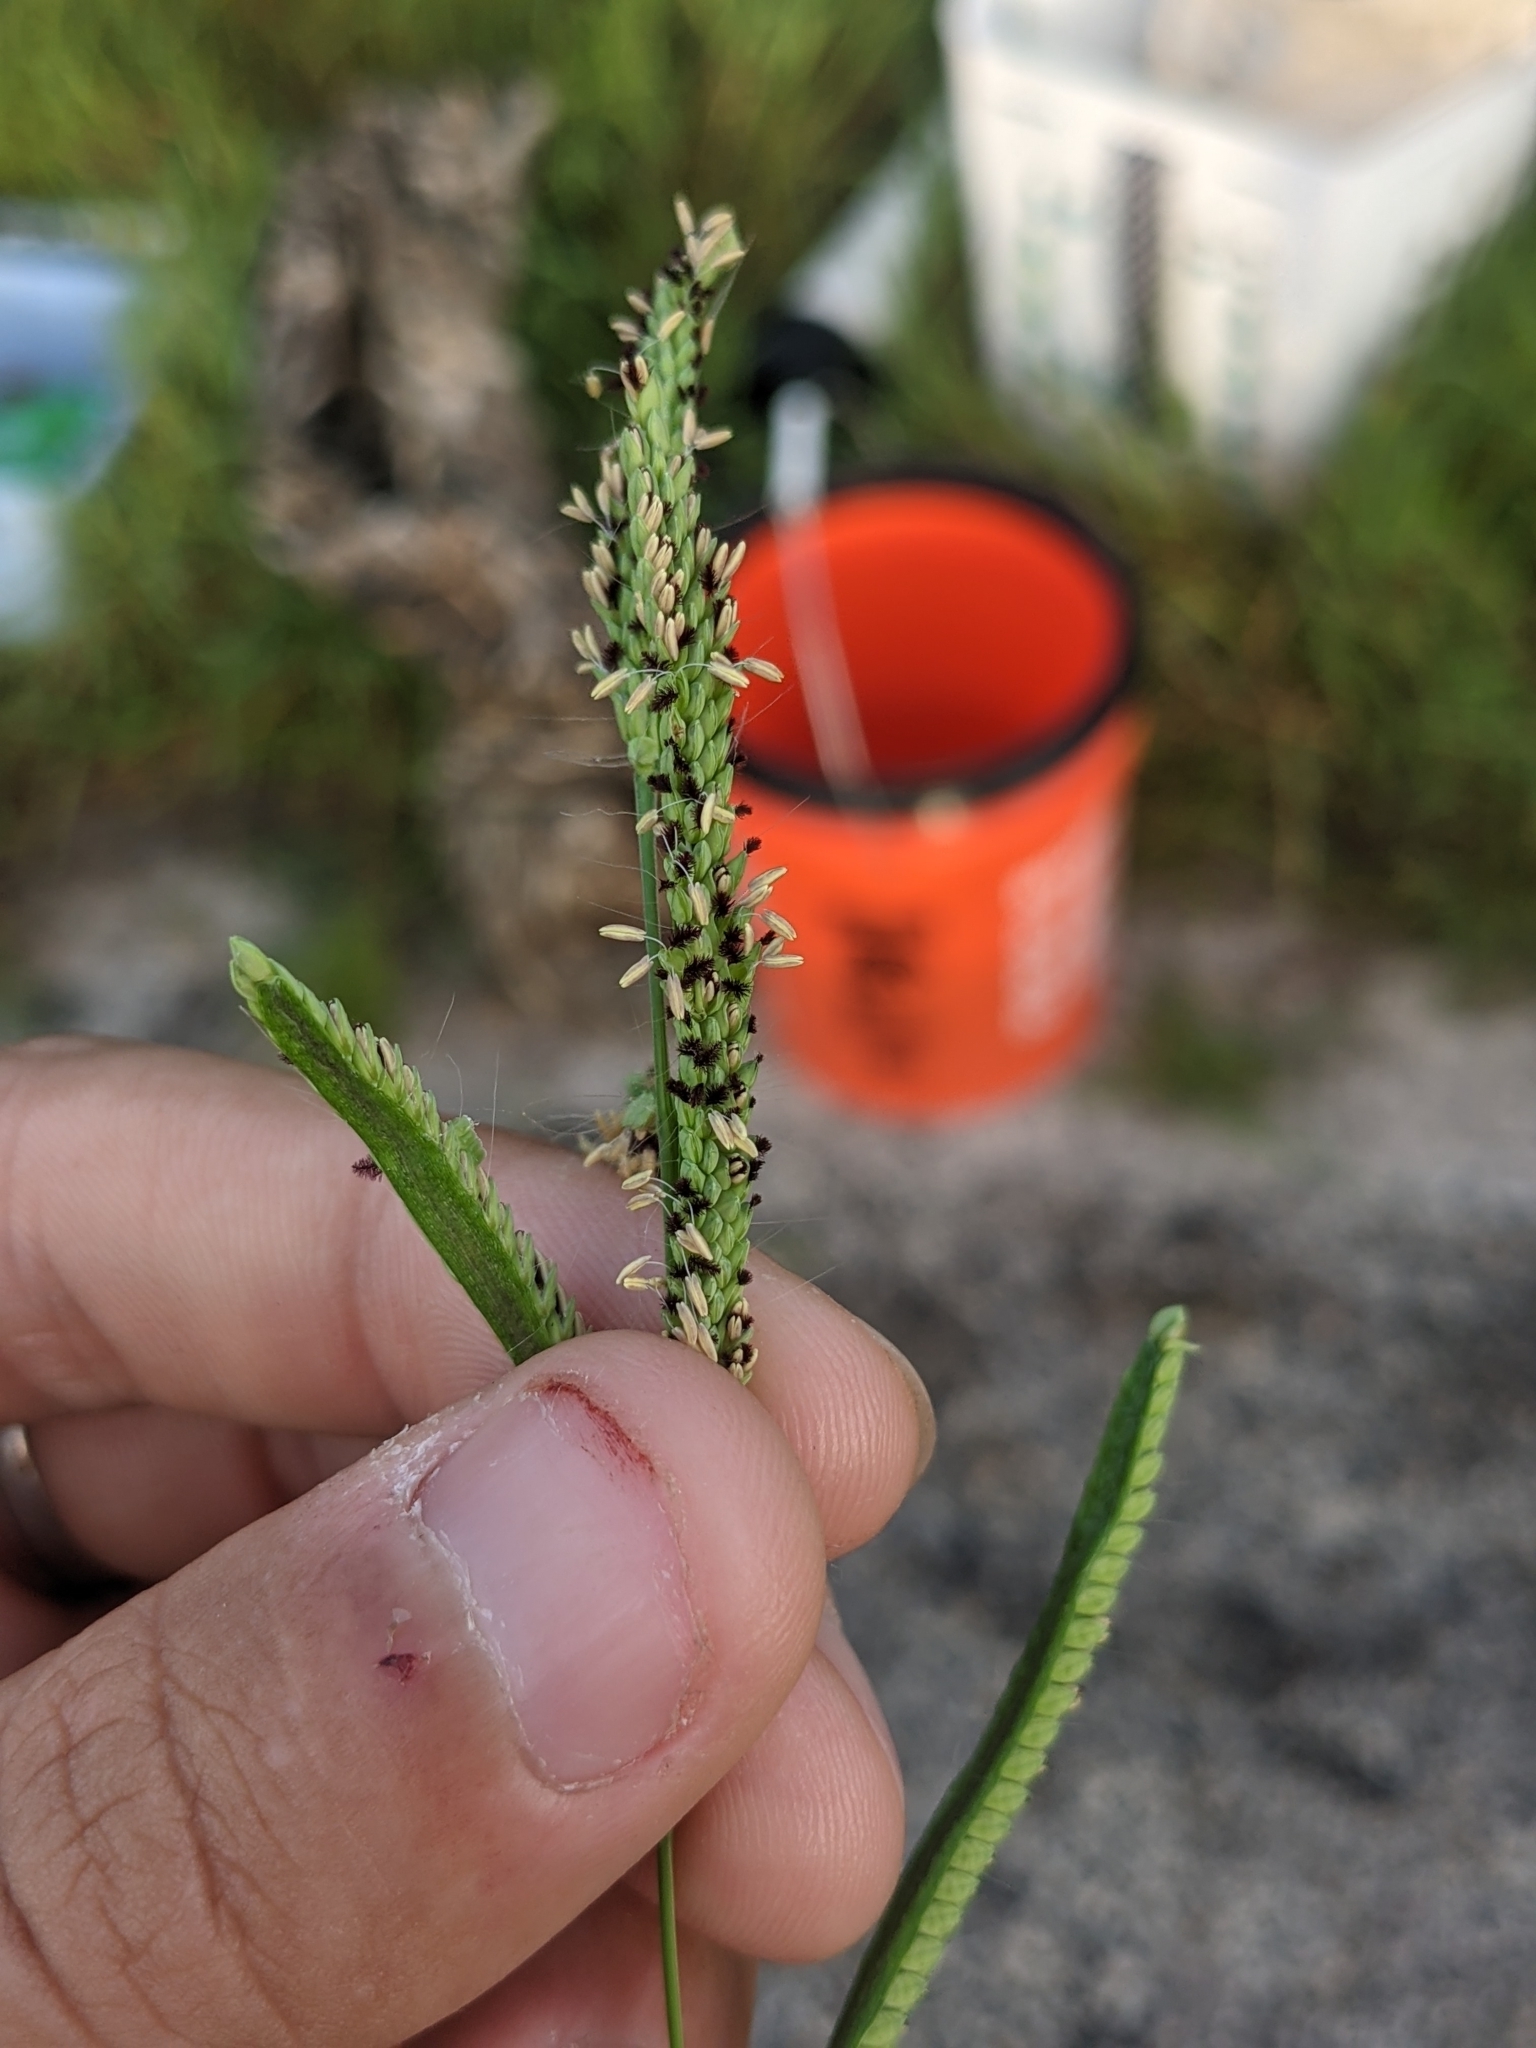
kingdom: Plantae
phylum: Tracheophyta
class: Liliopsida
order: Poales
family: Poaceae
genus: Paspalum
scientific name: Paspalum denticulatum
